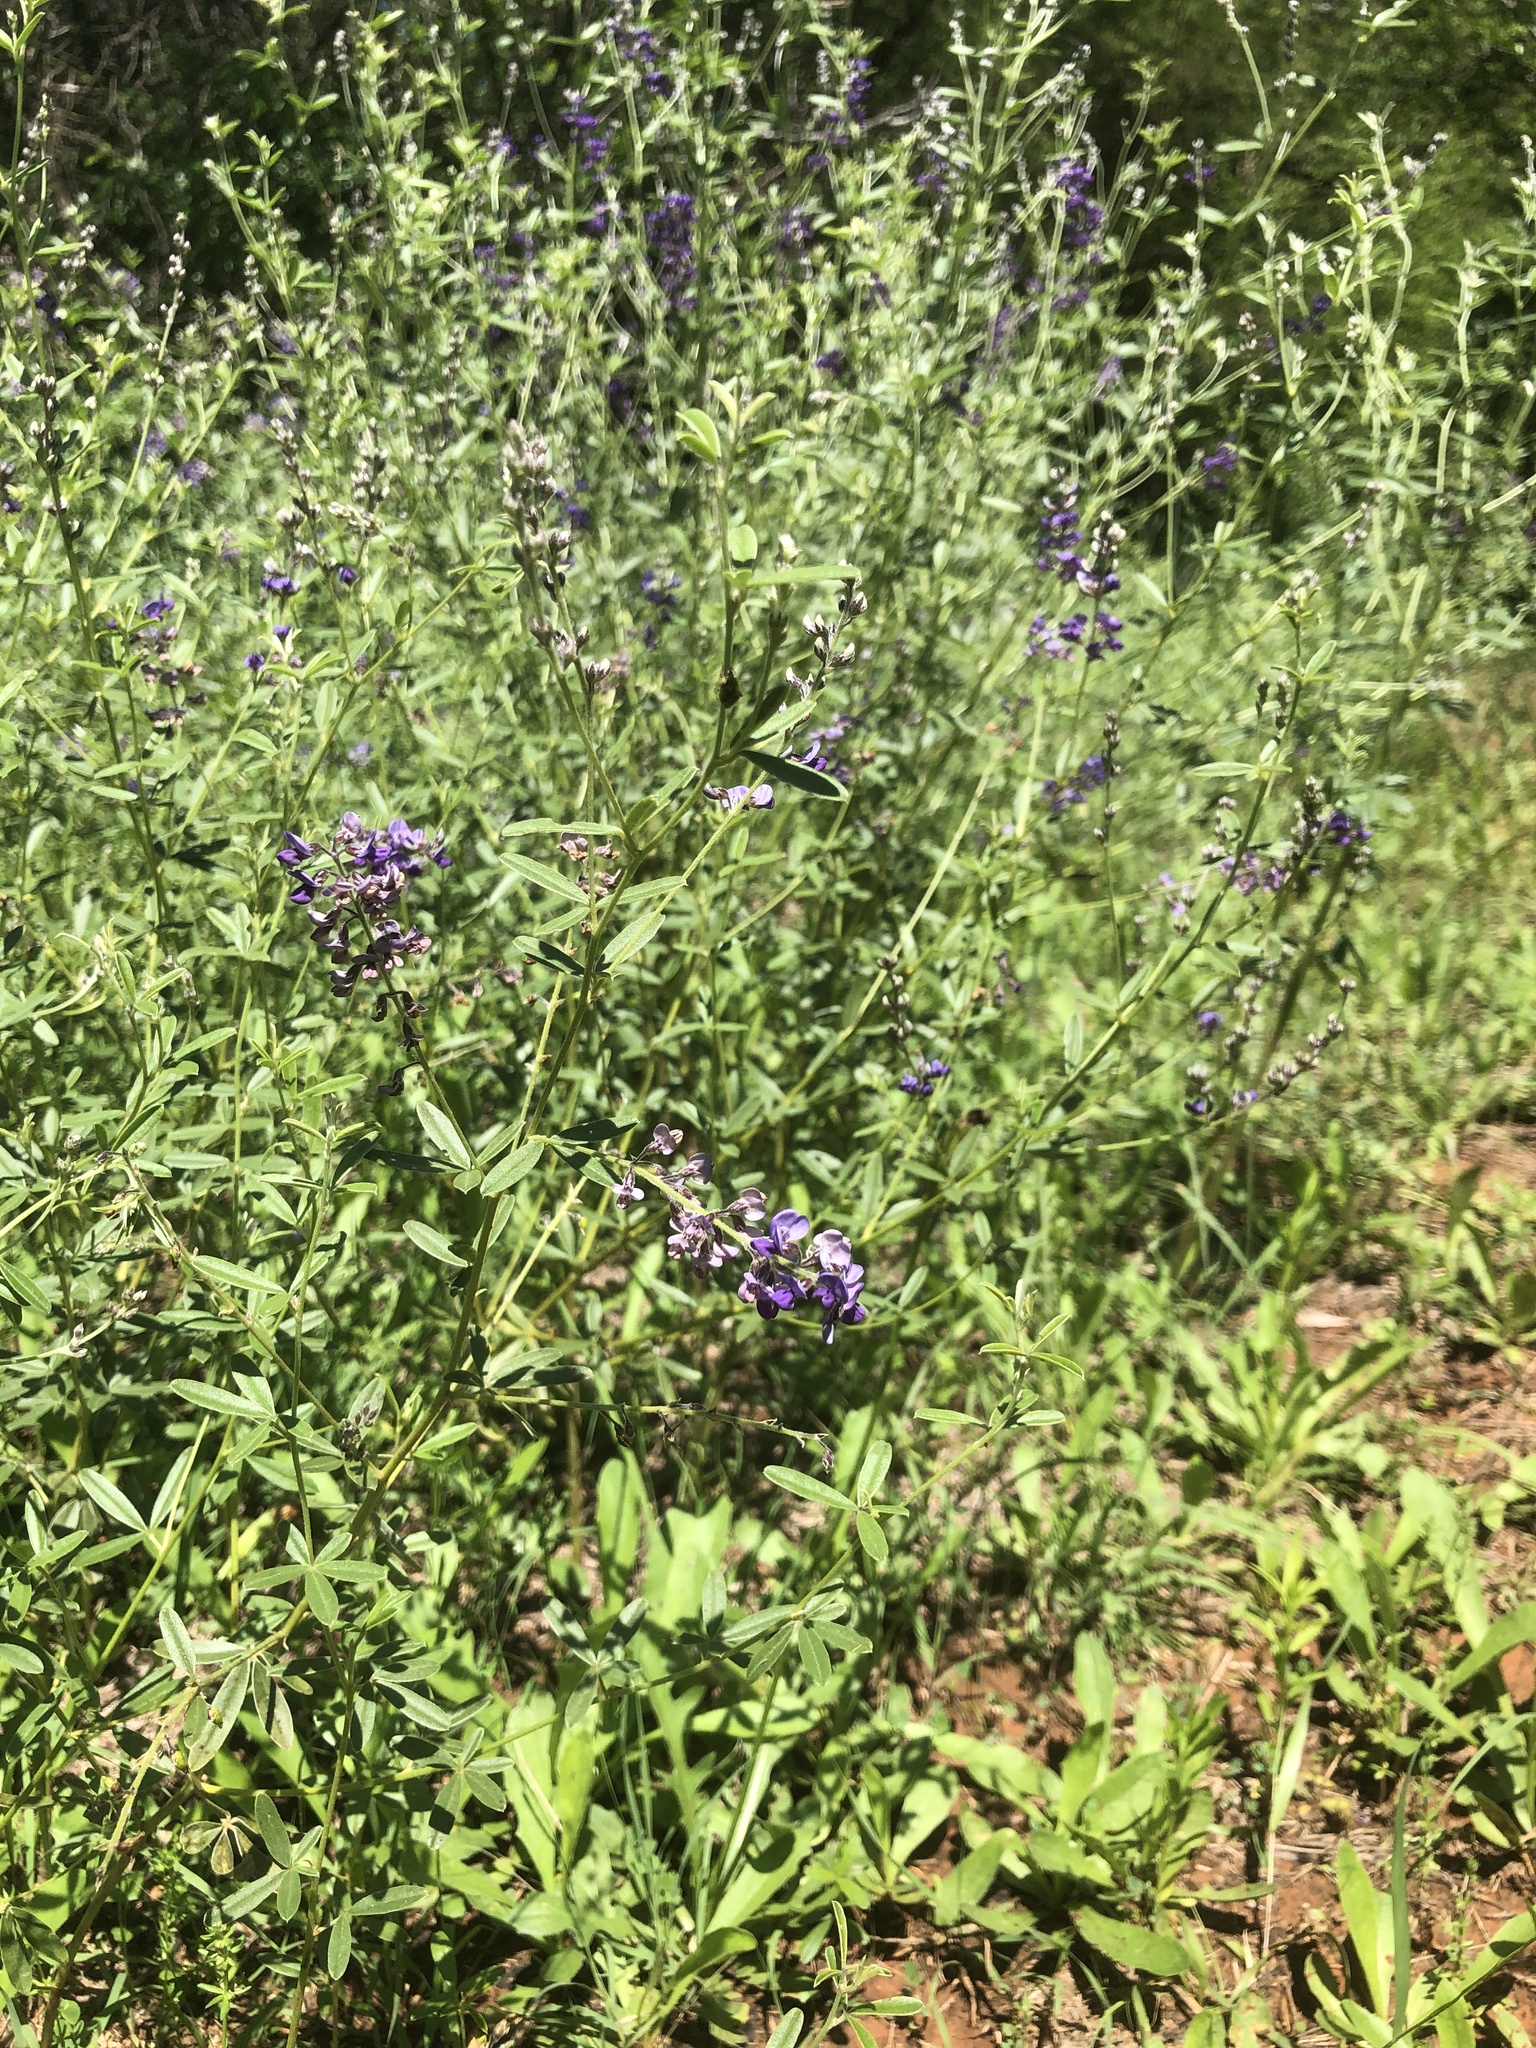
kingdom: Plantae
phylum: Tracheophyta
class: Magnoliopsida
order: Fabales
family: Fabaceae
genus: Pediomelum
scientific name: Pediomelum tenuiflorum
